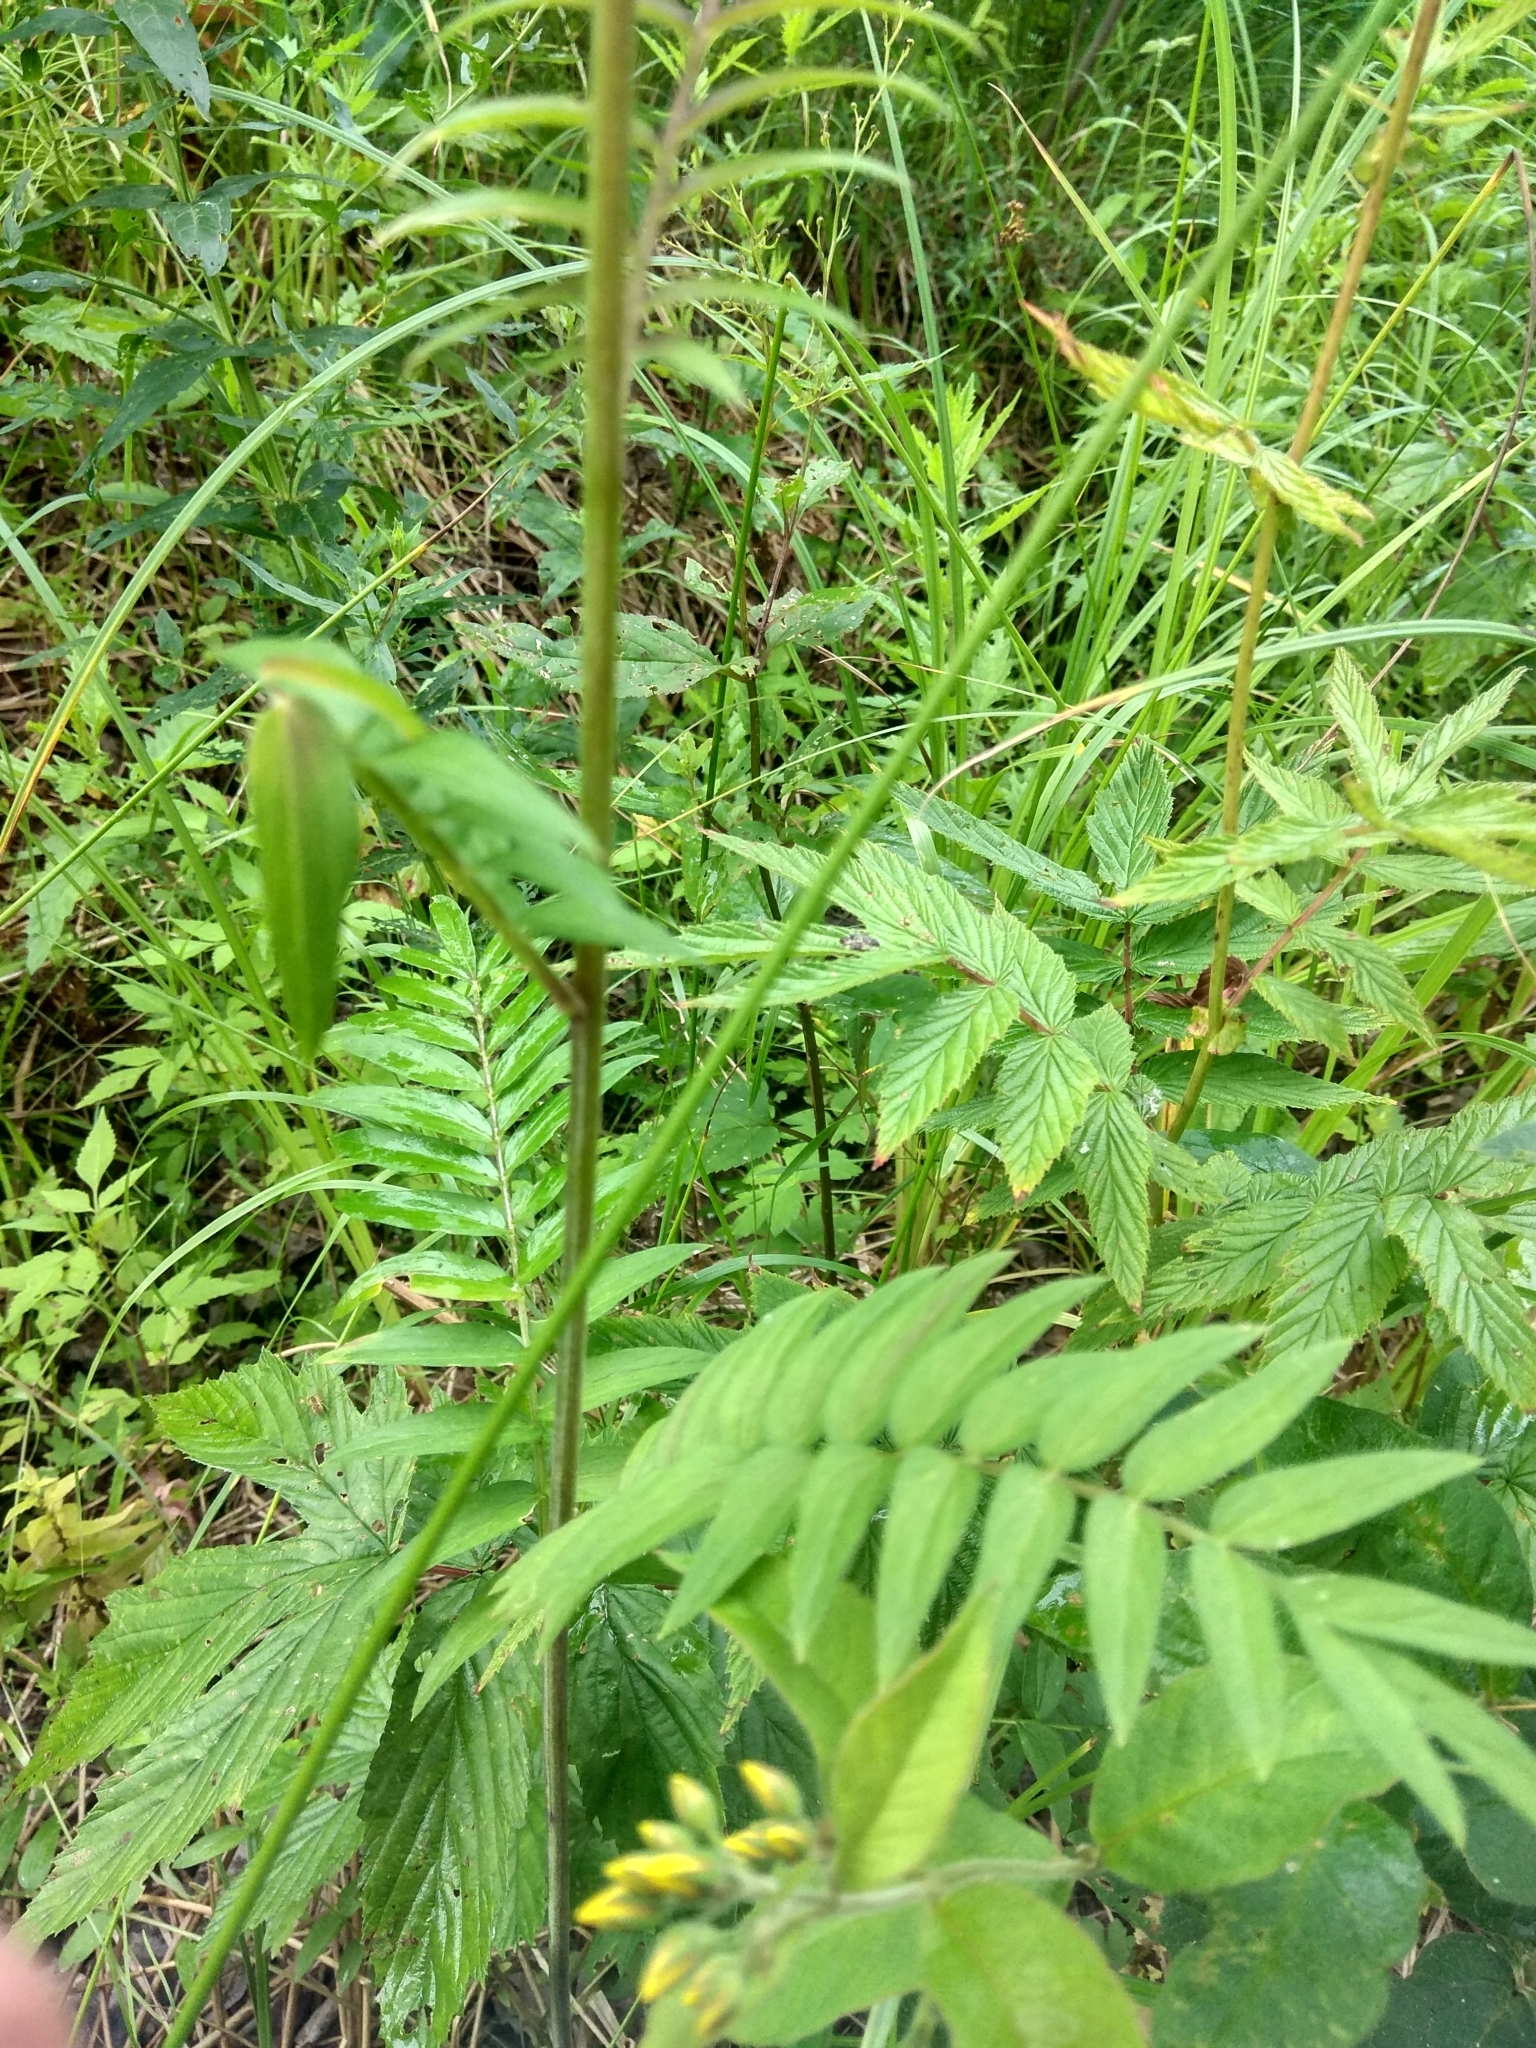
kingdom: Plantae
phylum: Tracheophyta
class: Magnoliopsida
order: Ericales
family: Polemoniaceae
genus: Polemonium
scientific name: Polemonium caeruleum
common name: Jacob's-ladder
